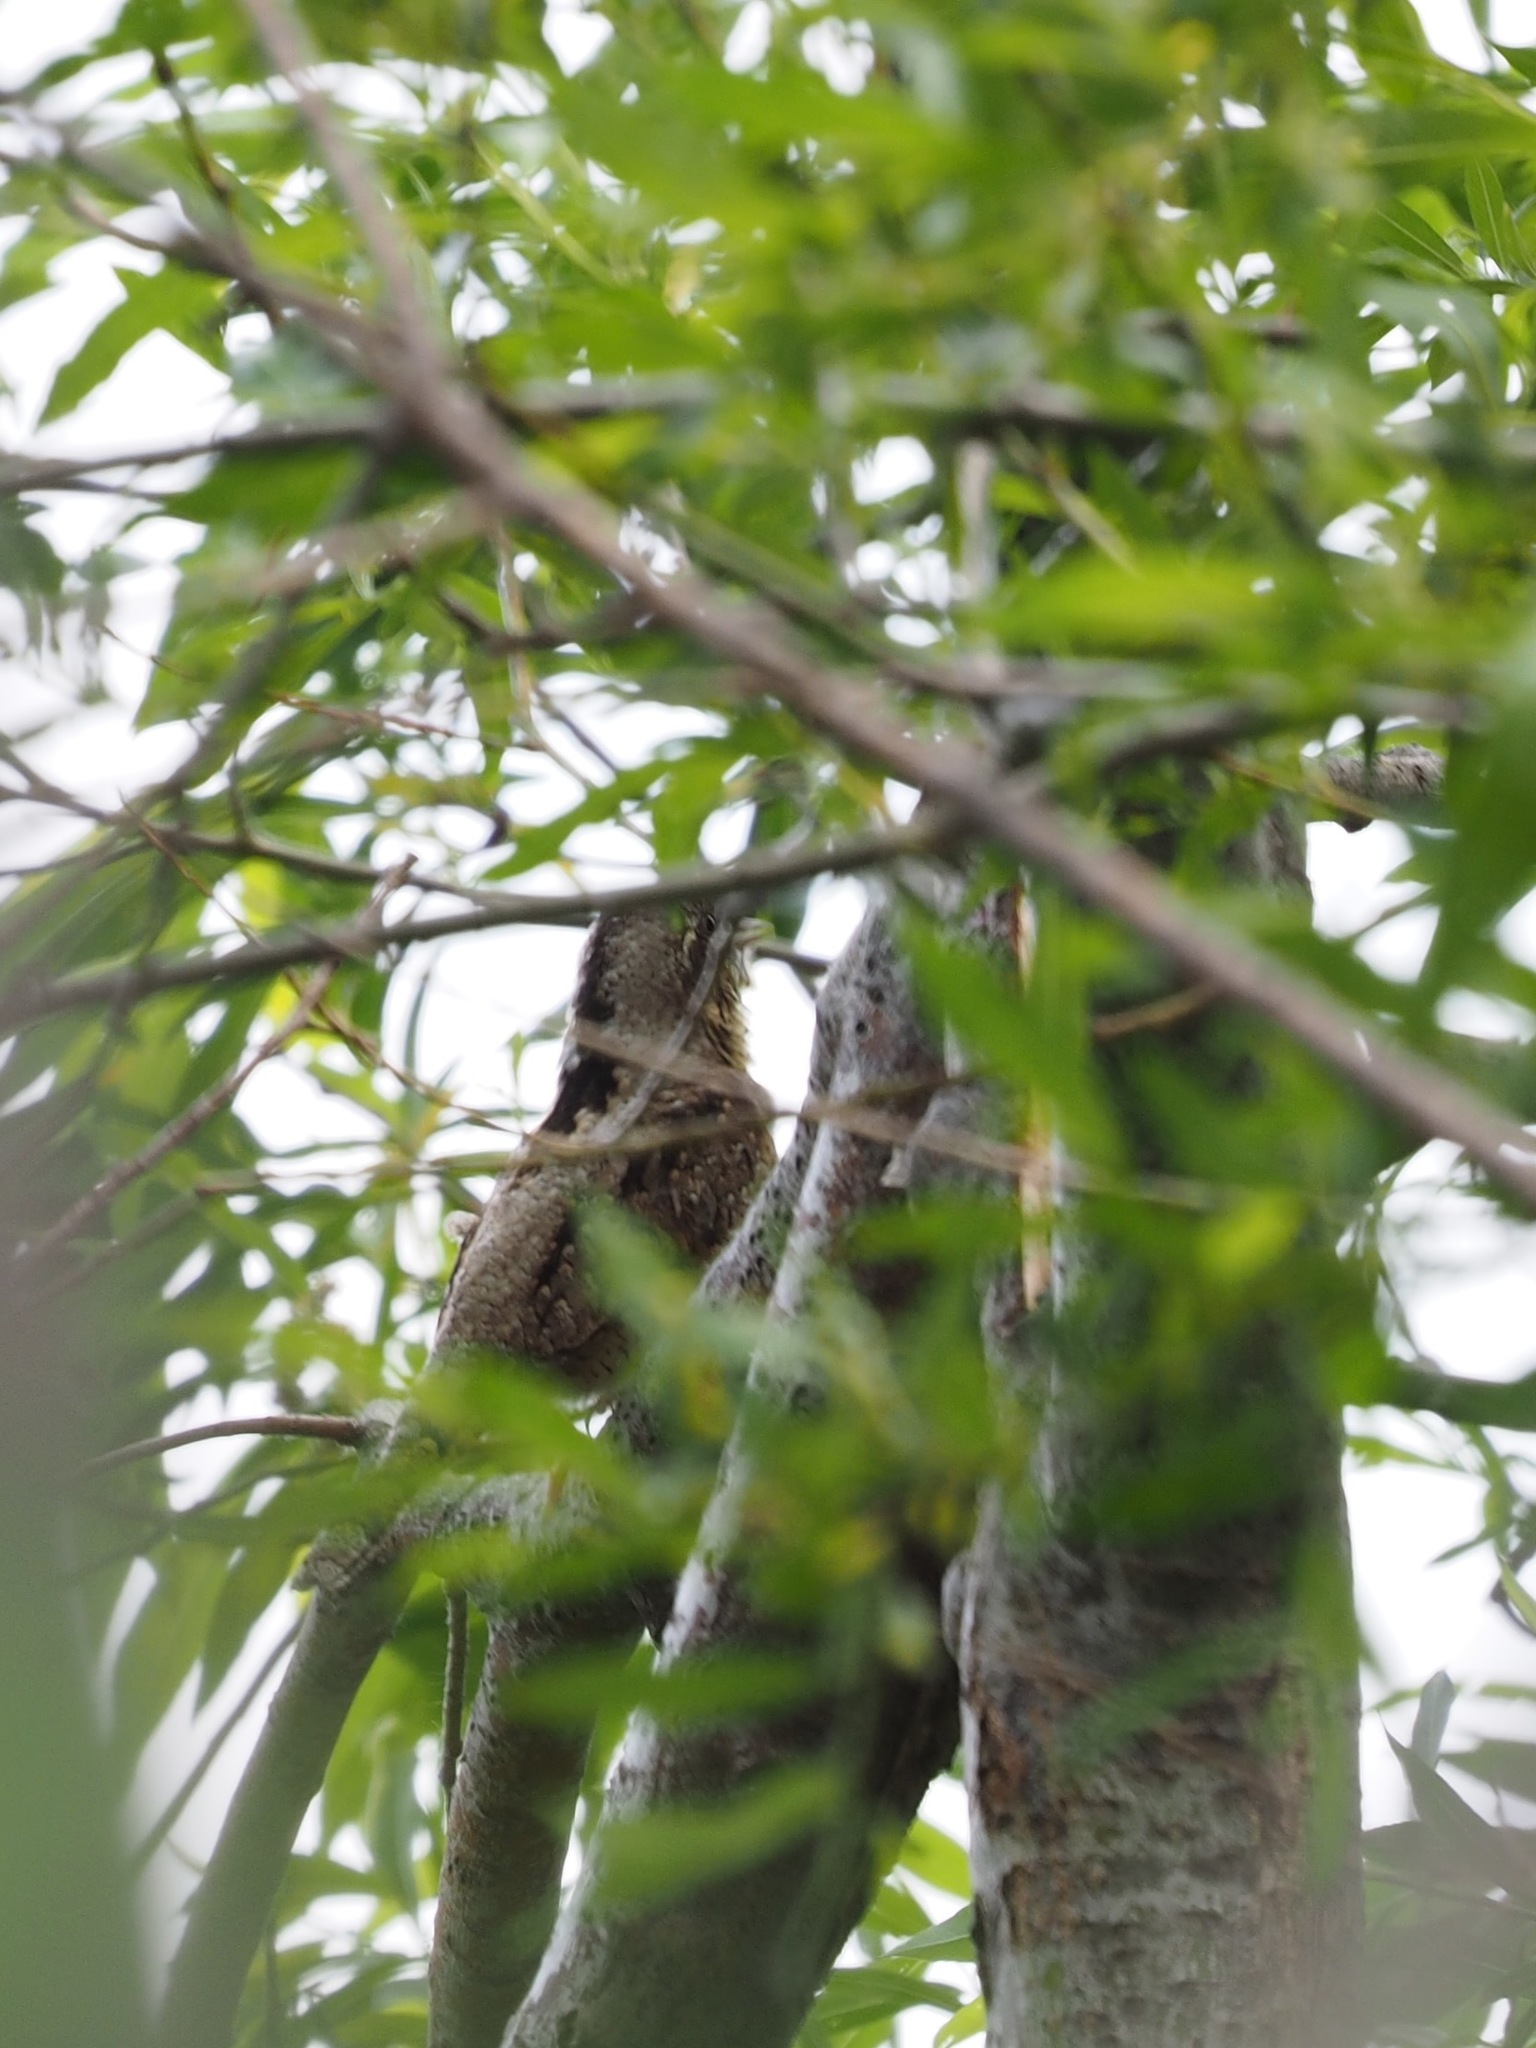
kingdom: Animalia
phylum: Chordata
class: Aves
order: Piciformes
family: Picidae
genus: Jynx
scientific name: Jynx torquilla
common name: Eurasian wryneck
